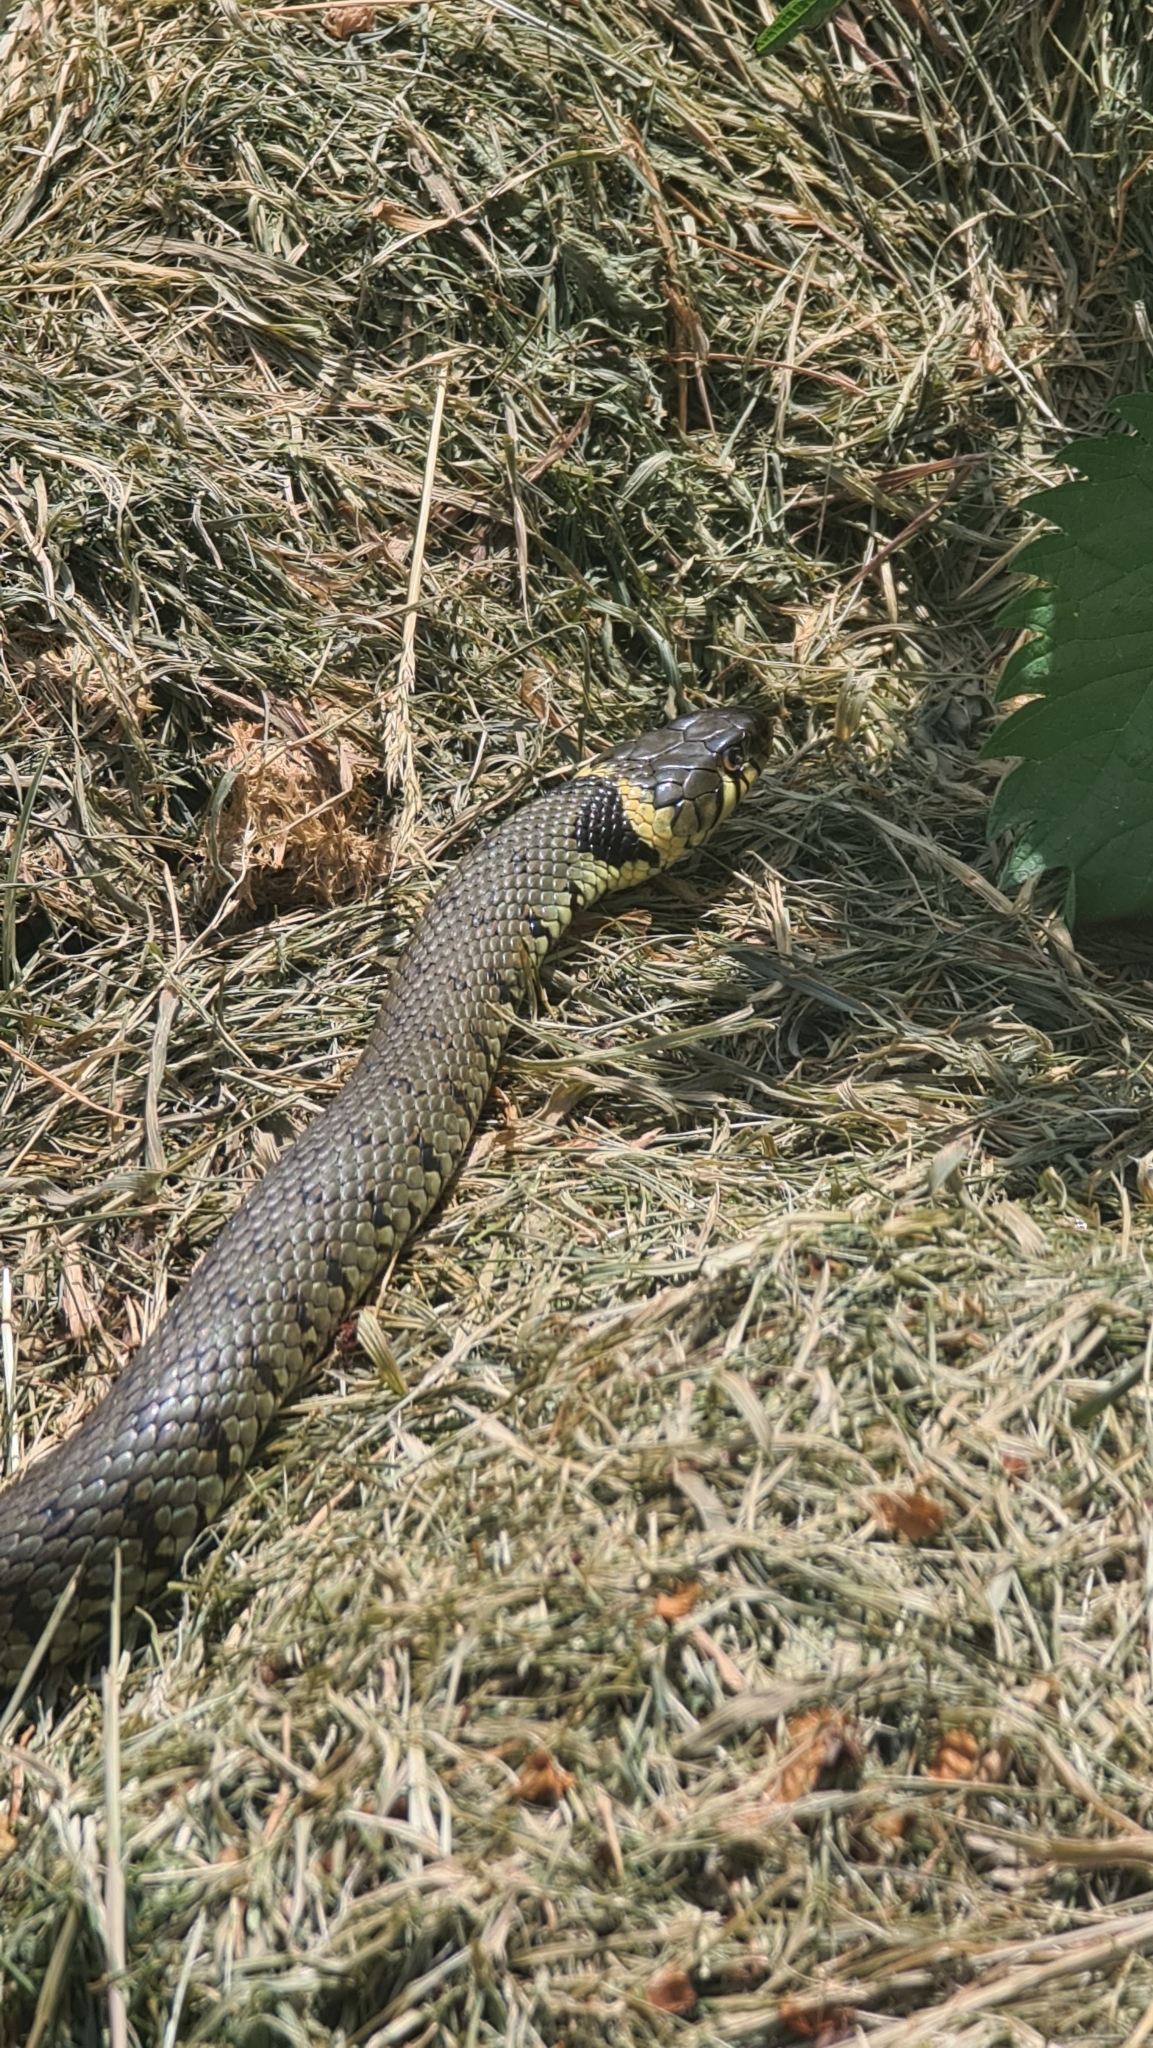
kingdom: Animalia
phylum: Chordata
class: Squamata
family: Colubridae
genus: Natrix
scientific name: Natrix helvetica
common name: Banded grass snake
